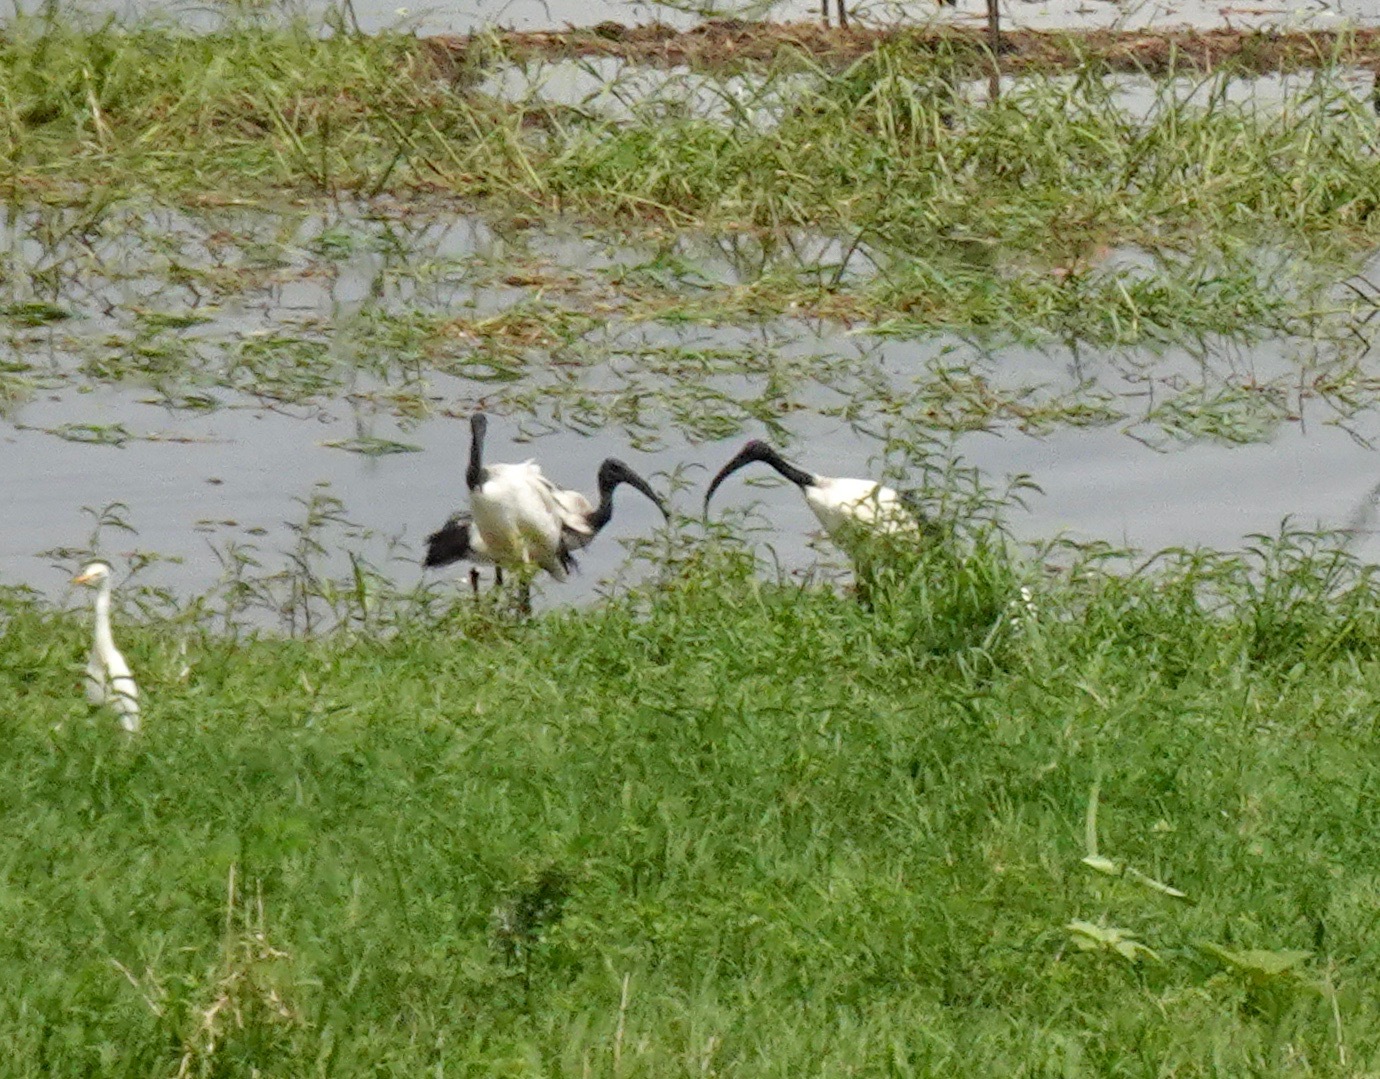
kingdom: Animalia
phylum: Chordata
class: Aves
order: Pelecaniformes
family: Threskiornithidae
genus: Threskiornis
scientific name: Threskiornis aethiopicus
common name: Sacred ibis
